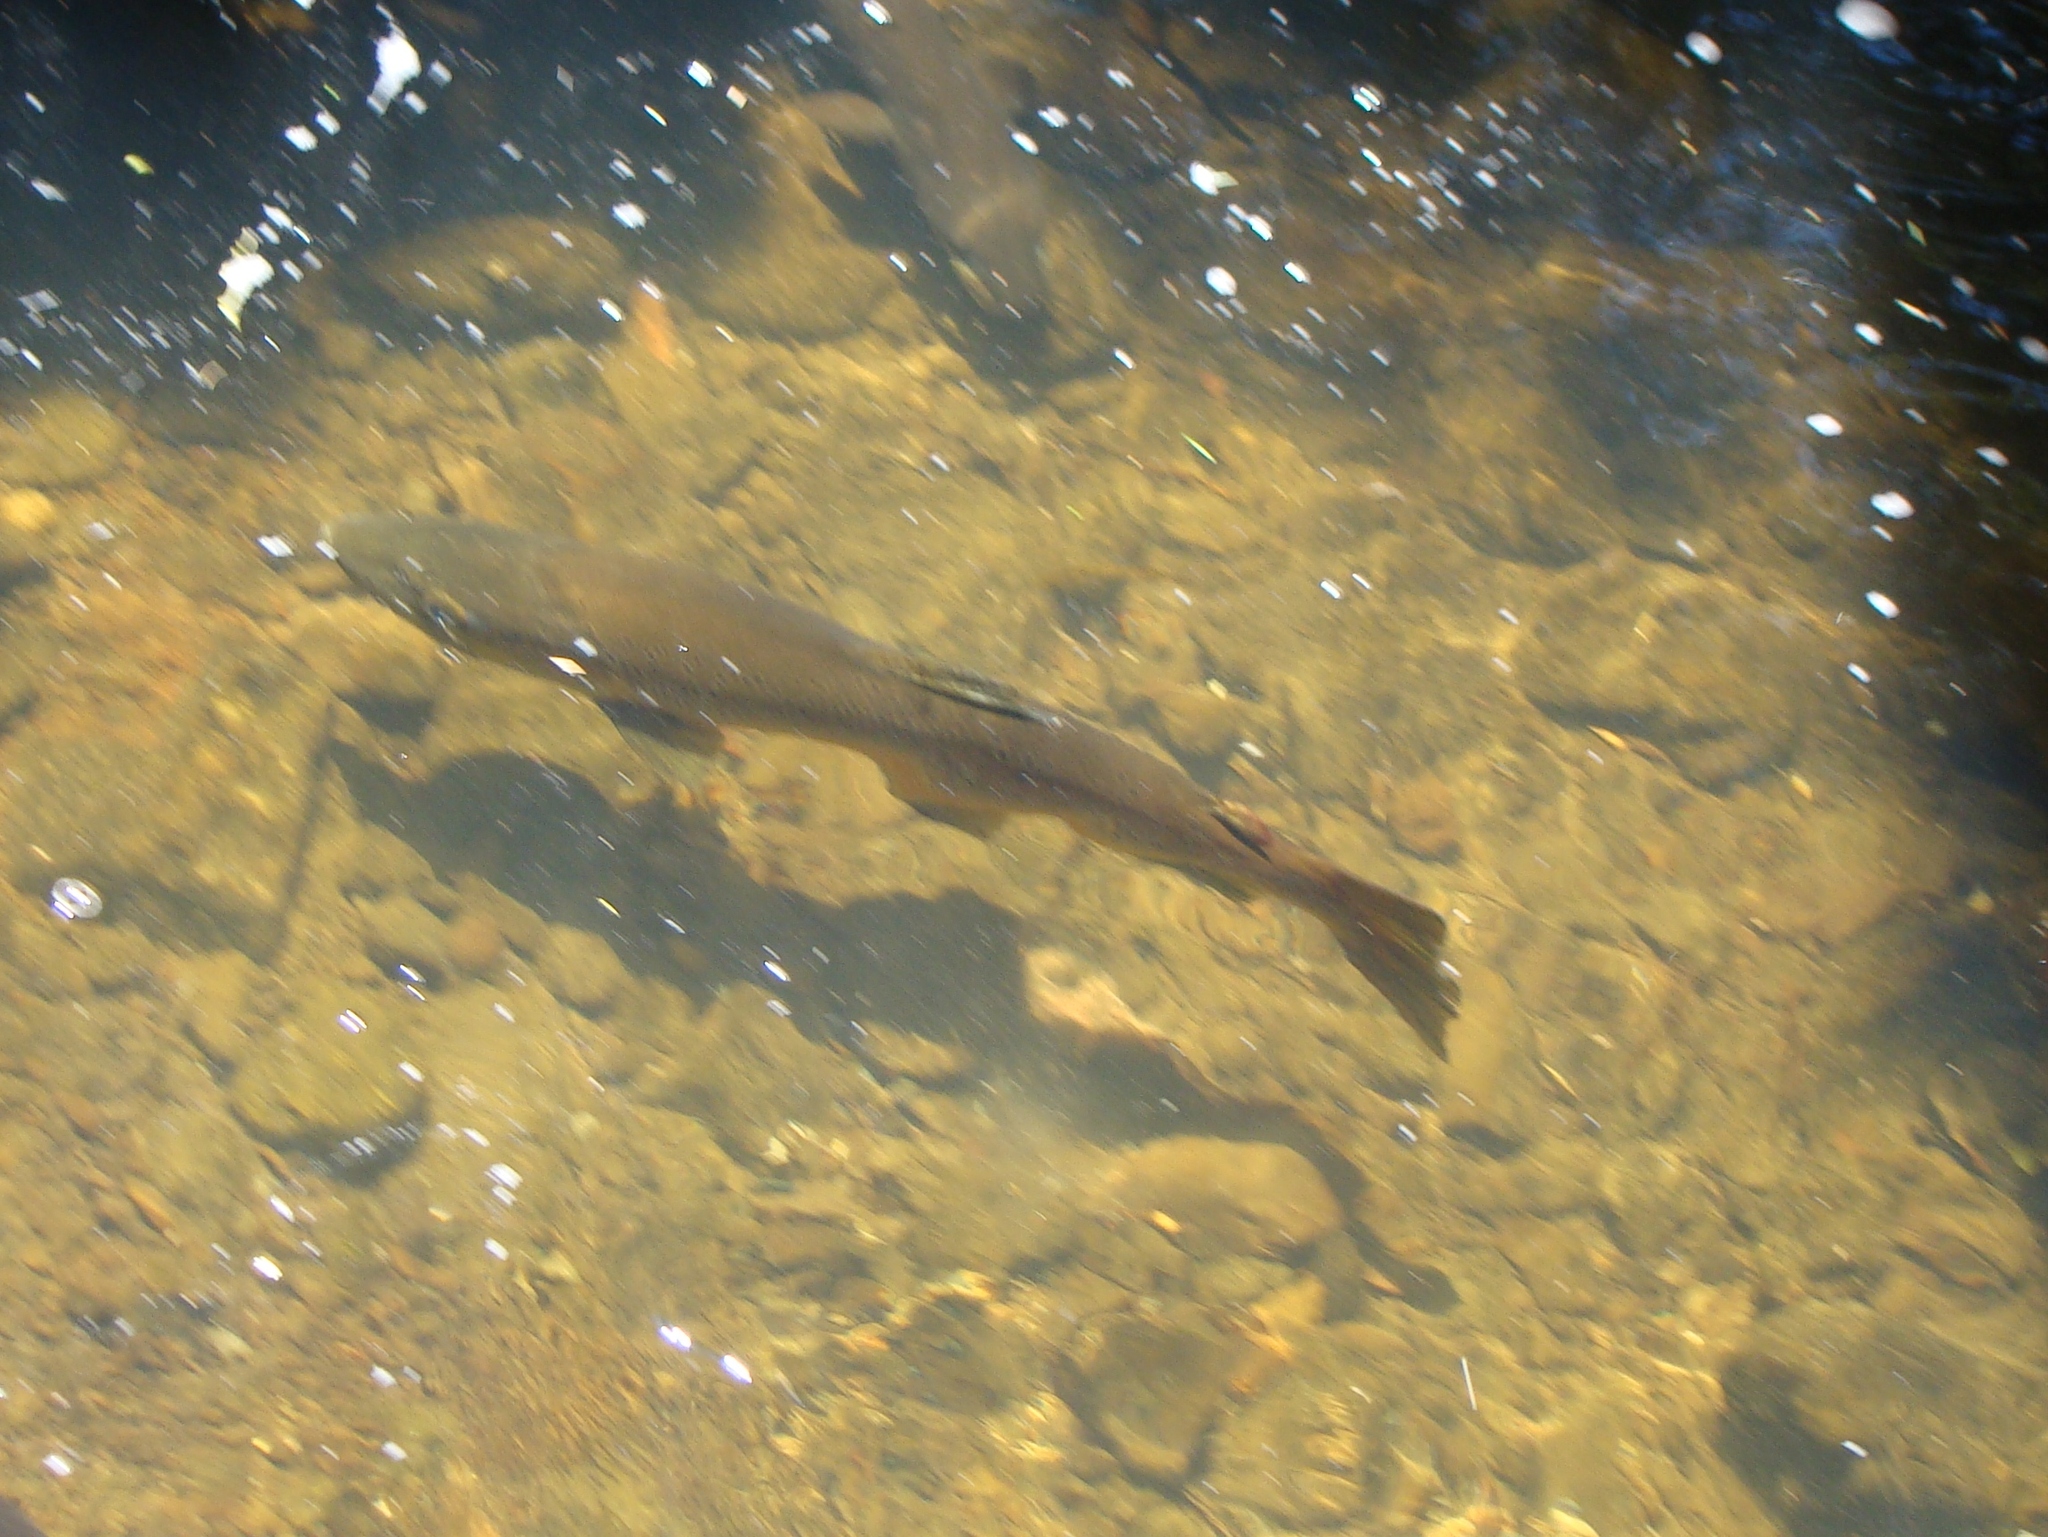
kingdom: Animalia
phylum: Chordata
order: Salmoniformes
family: Salmonidae
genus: Salmo
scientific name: Salmo trutta
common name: Brown trout
